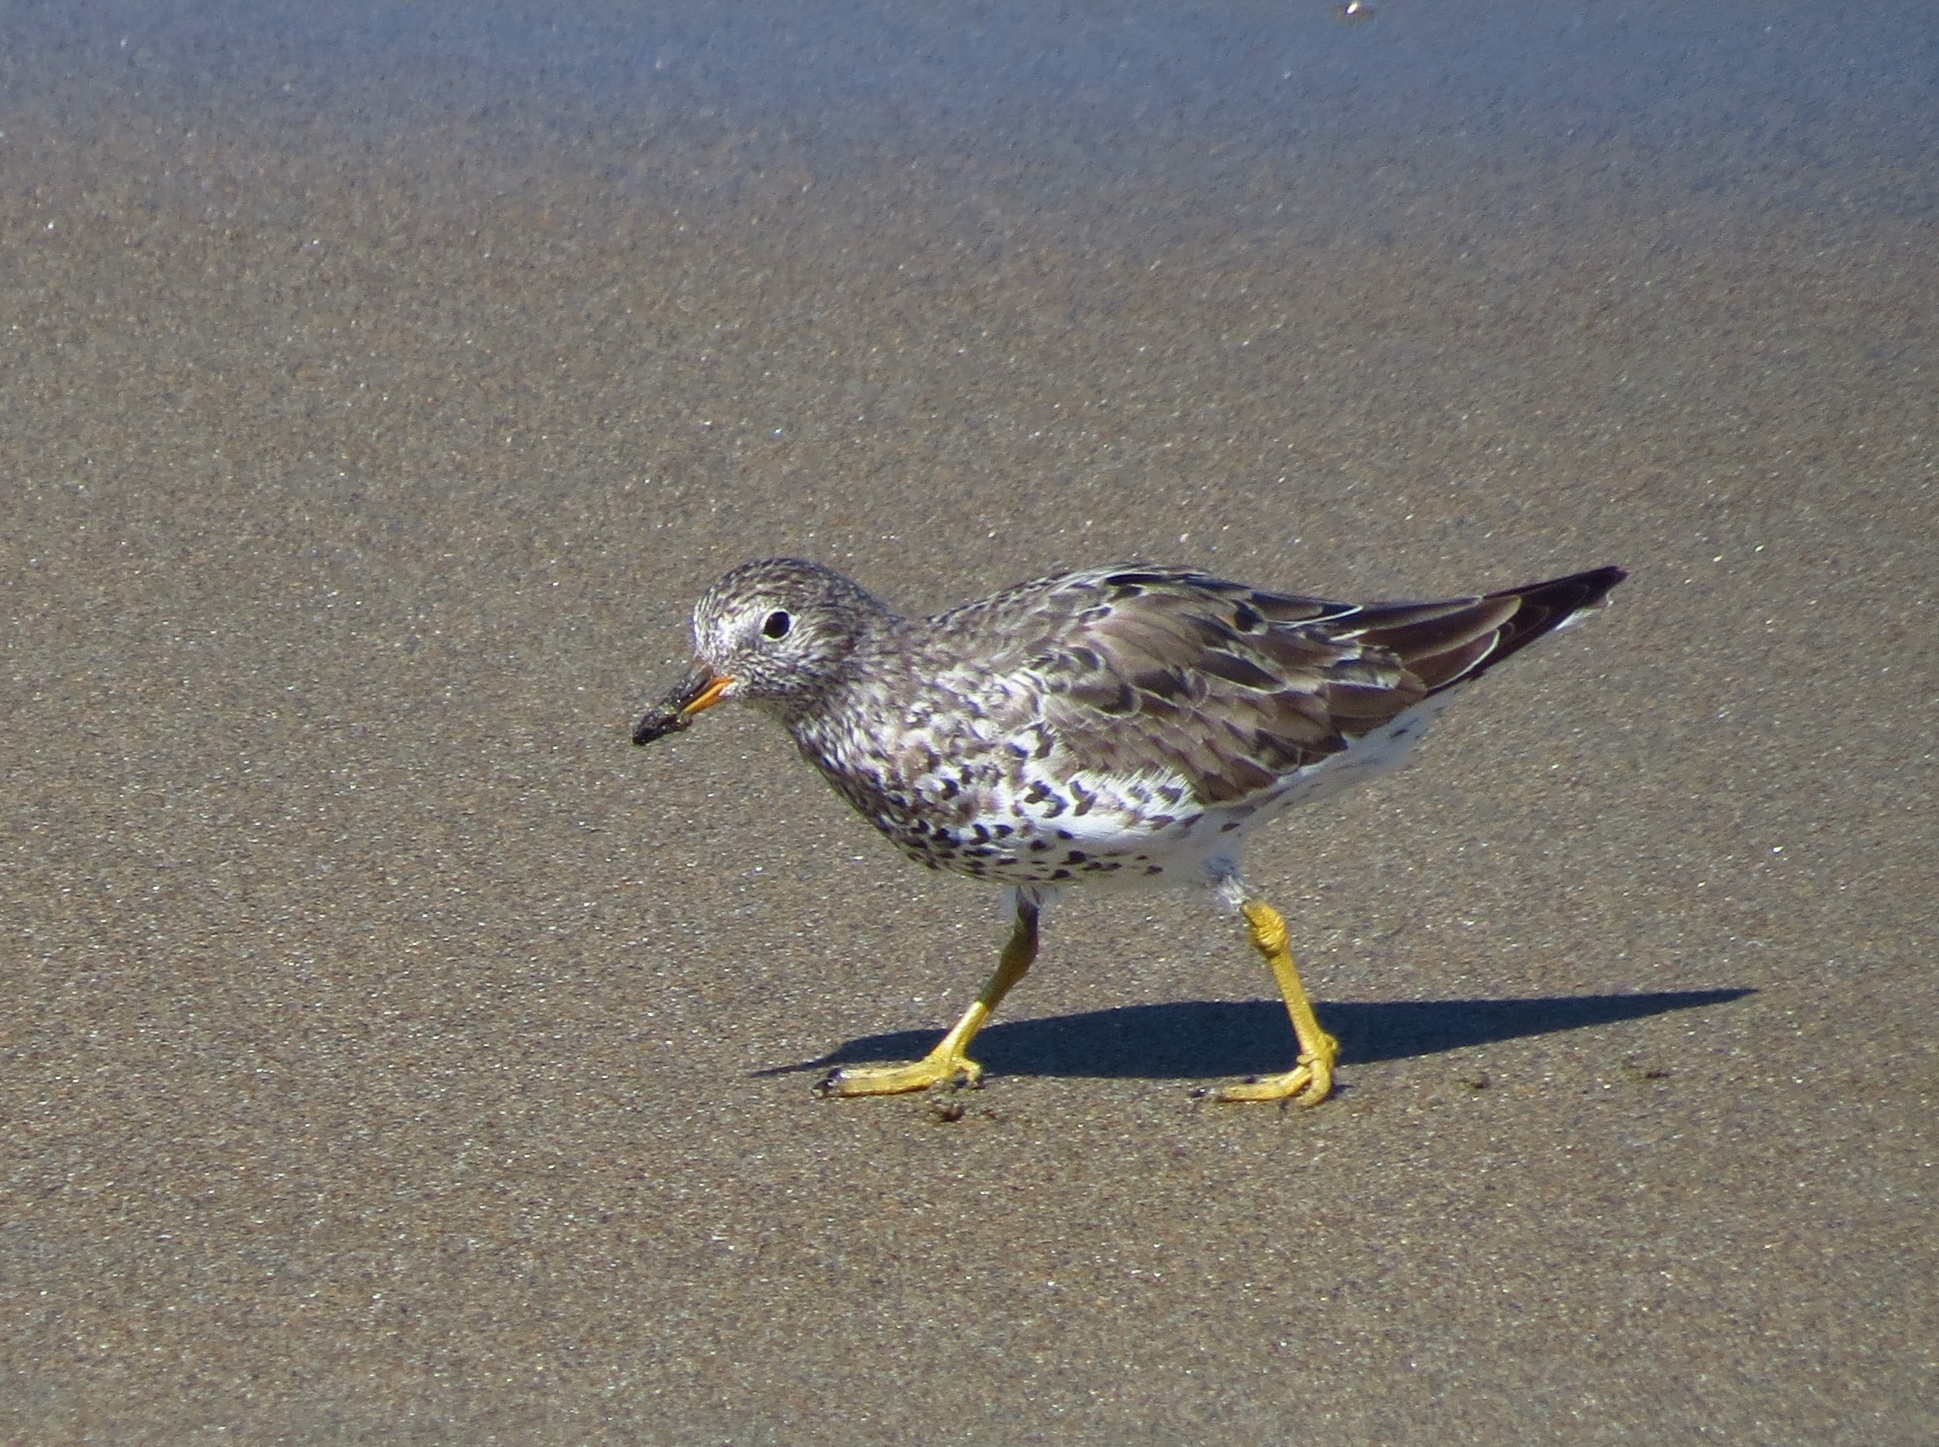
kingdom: Animalia
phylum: Chordata
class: Aves
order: Charadriiformes
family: Scolopacidae
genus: Calidris
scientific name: Calidris virgata
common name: Surfbird
